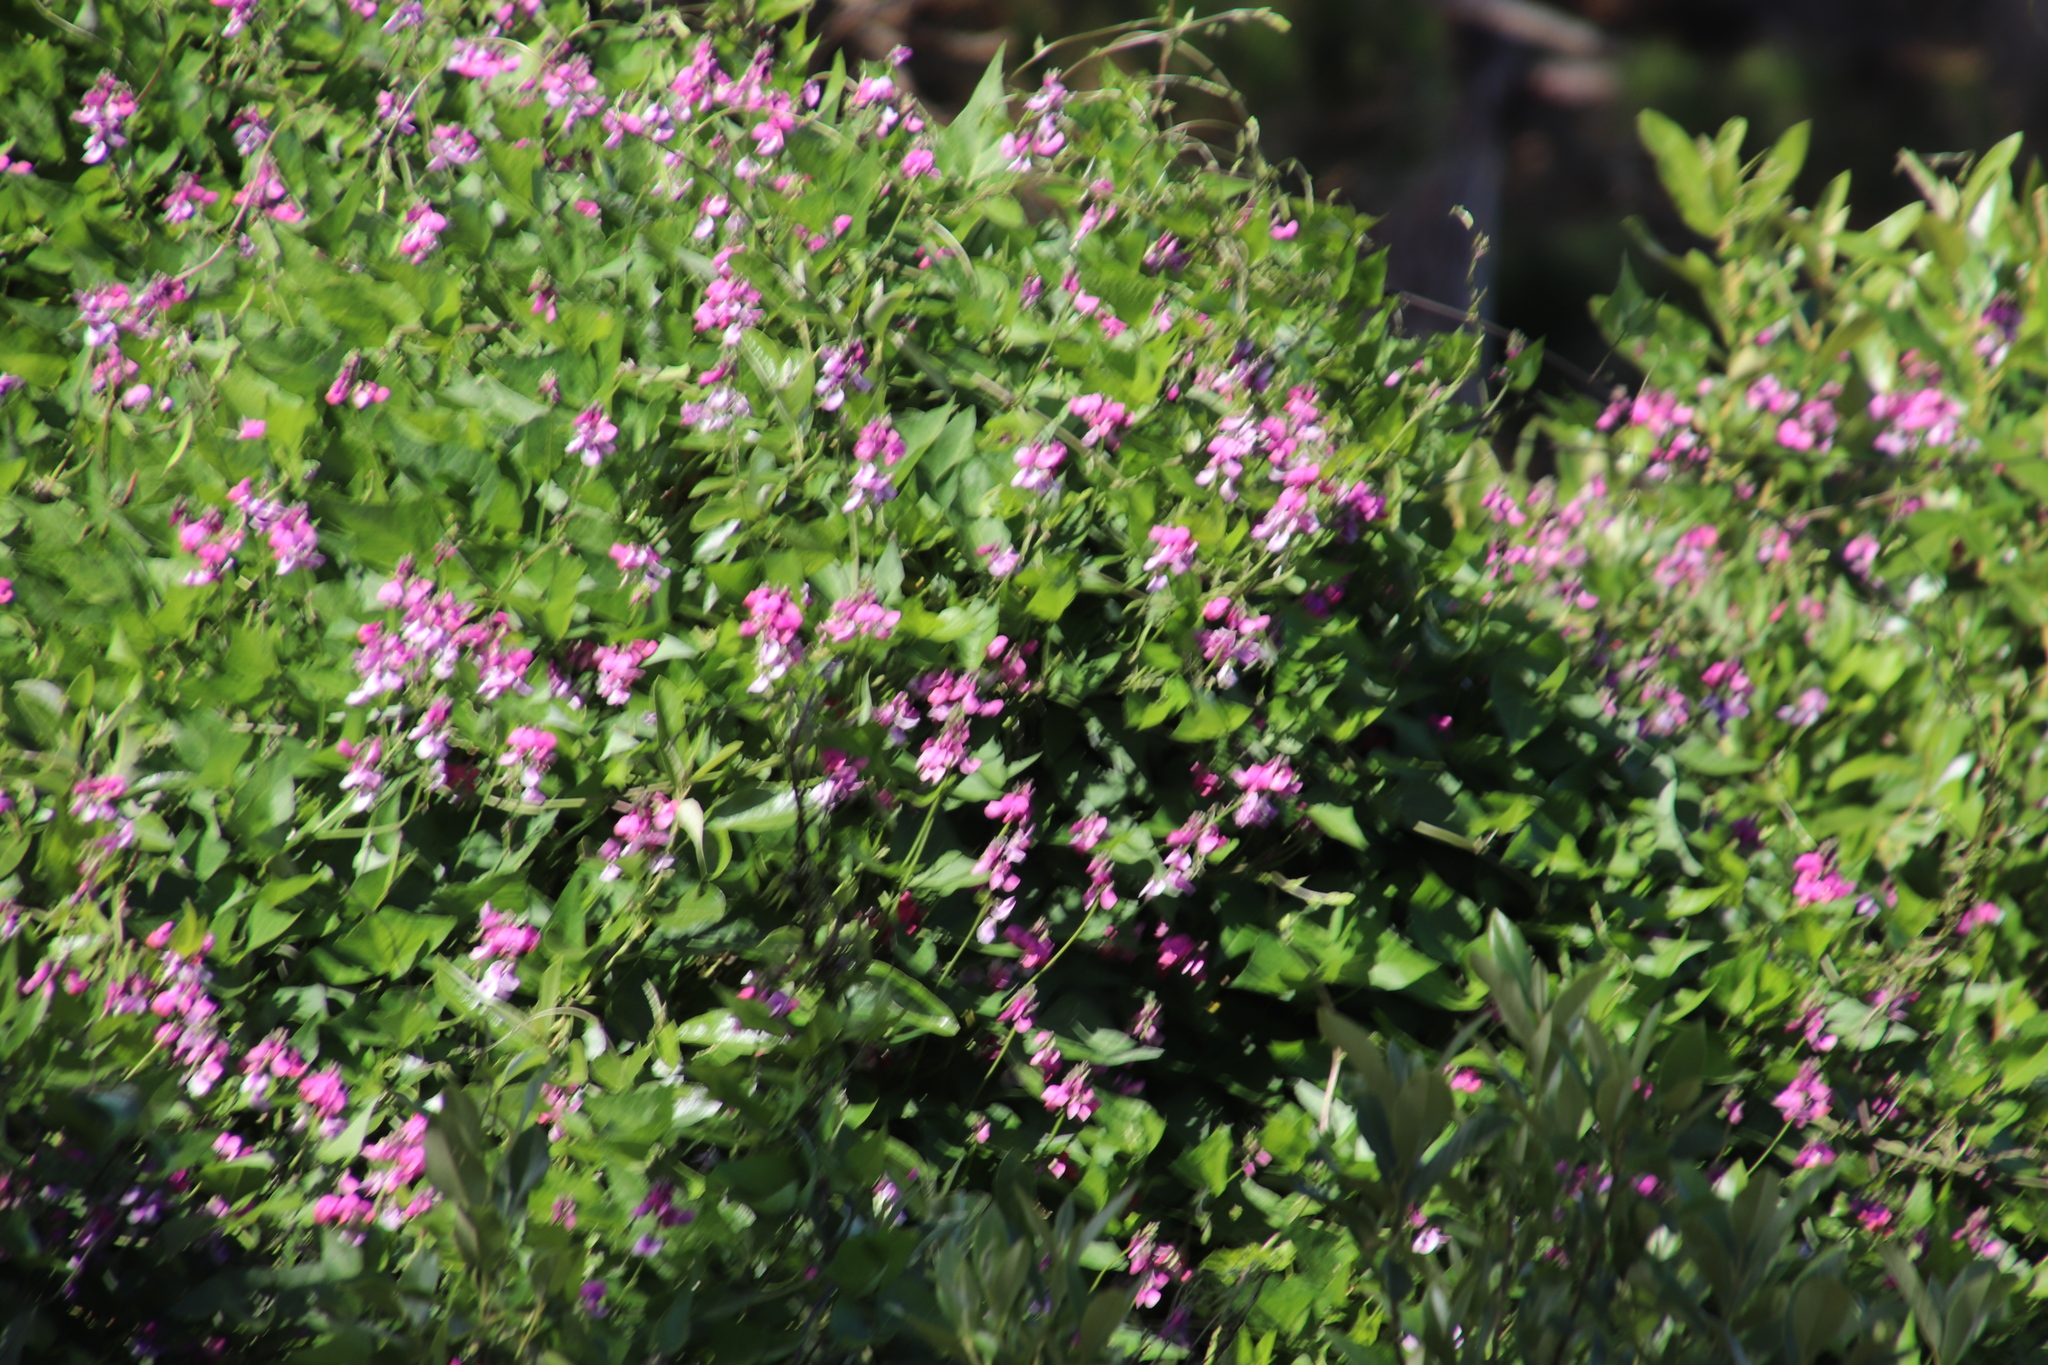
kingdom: Plantae
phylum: Tracheophyta
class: Magnoliopsida
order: Fabales
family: Fabaceae
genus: Dipogon
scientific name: Dipogon lignosus
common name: Okie bean
